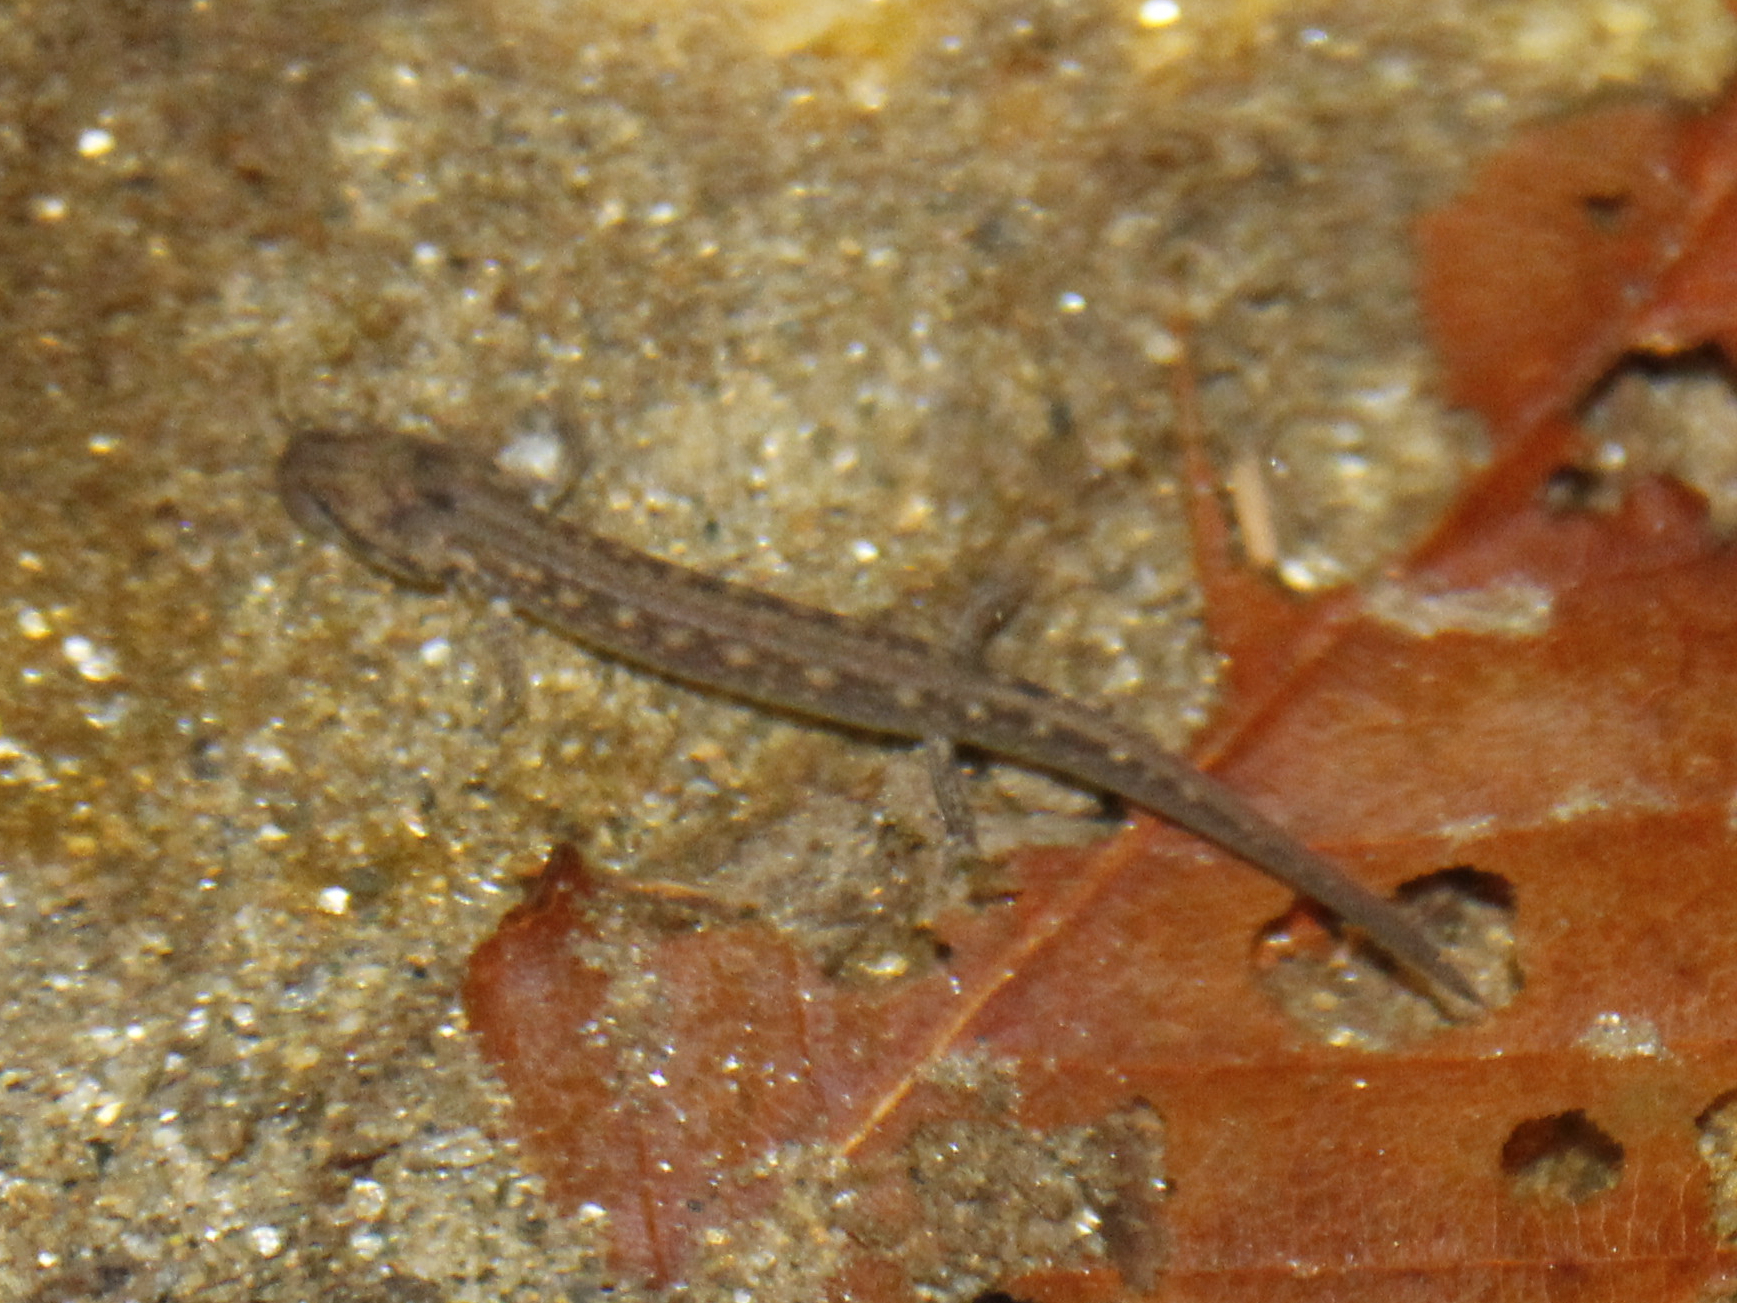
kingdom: Animalia
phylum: Chordata
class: Amphibia
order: Caudata
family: Plethodontidae
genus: Eurycea
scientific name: Eurycea bislineata
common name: Northern two-lined salamander
